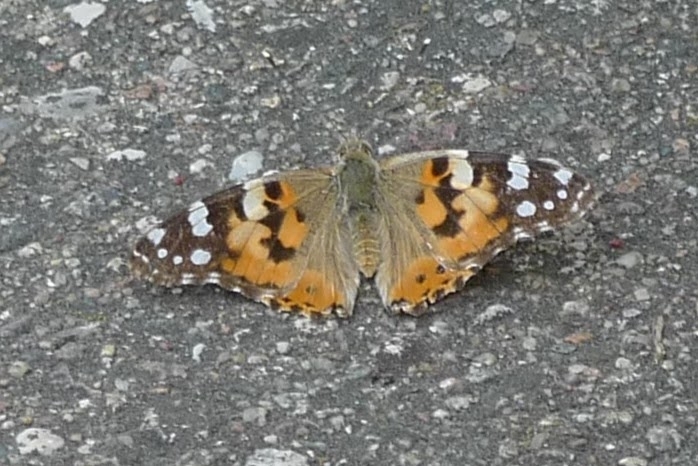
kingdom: Animalia
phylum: Arthropoda
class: Insecta
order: Lepidoptera
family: Nymphalidae
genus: Vanessa
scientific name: Vanessa cardui
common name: Painted lady
